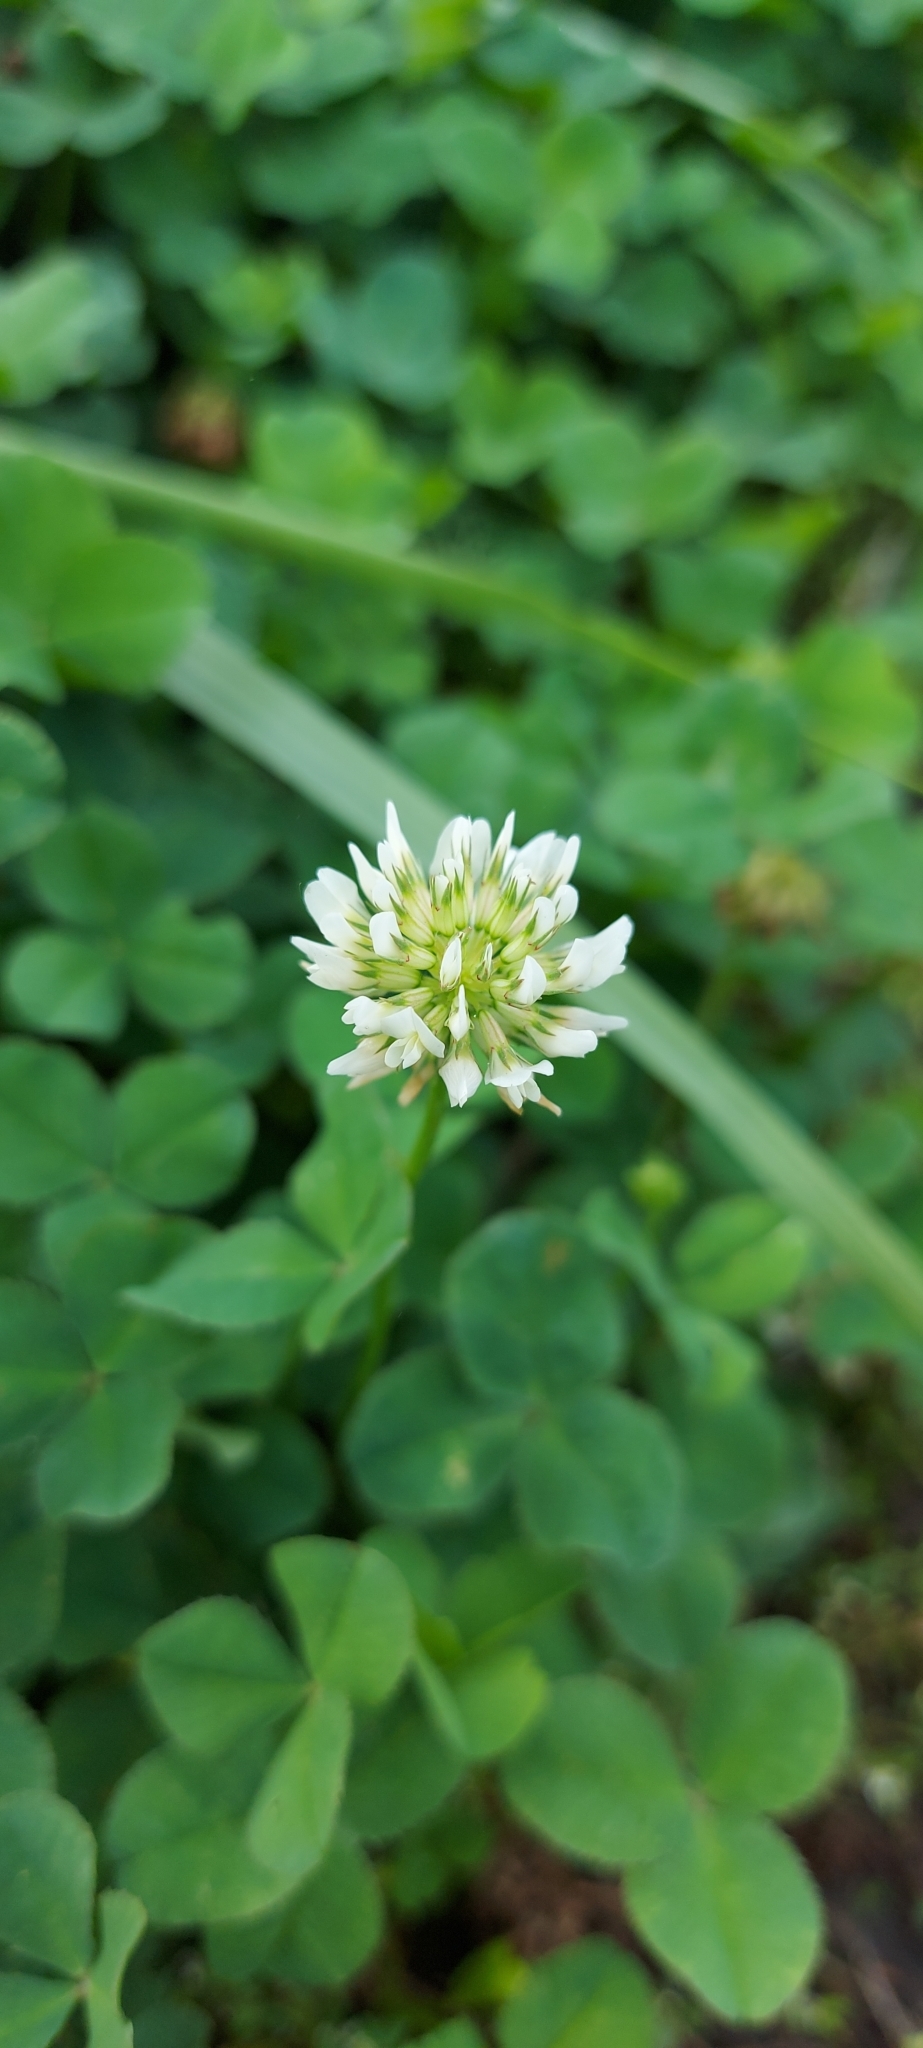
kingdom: Plantae
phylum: Tracheophyta
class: Magnoliopsida
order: Fabales
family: Fabaceae
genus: Trifolium
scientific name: Trifolium repens
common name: White clover
